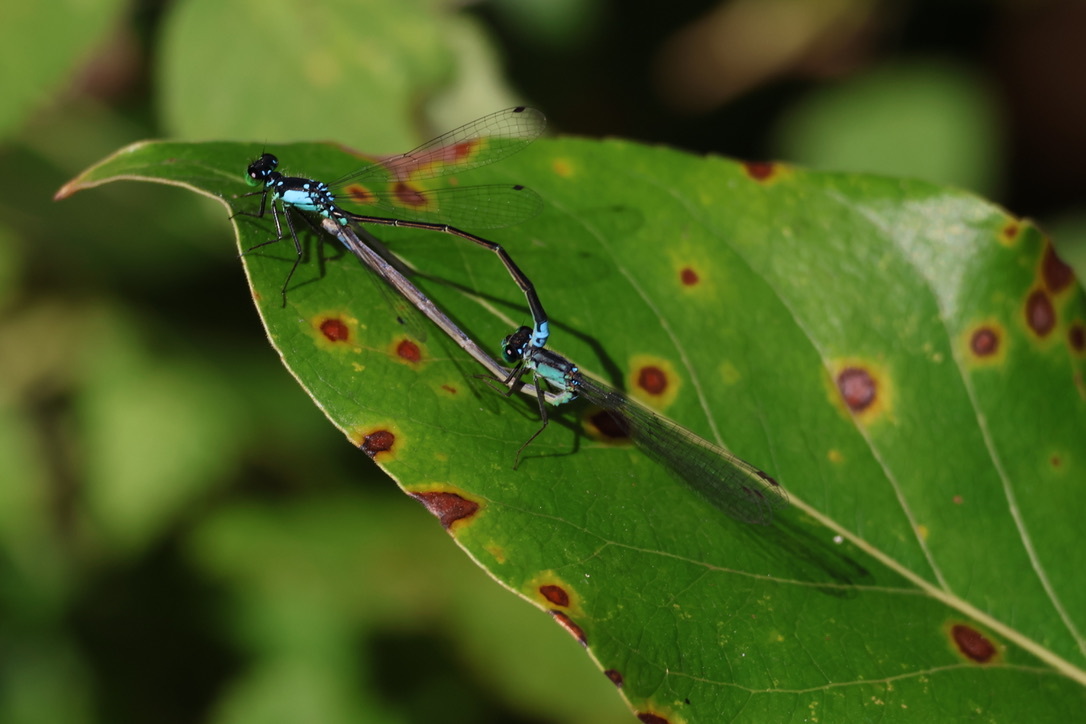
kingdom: Animalia
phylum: Arthropoda
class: Insecta
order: Odonata
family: Coenagrionidae
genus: Ischnura
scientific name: Ischnura cervula
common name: Pacific forktail
